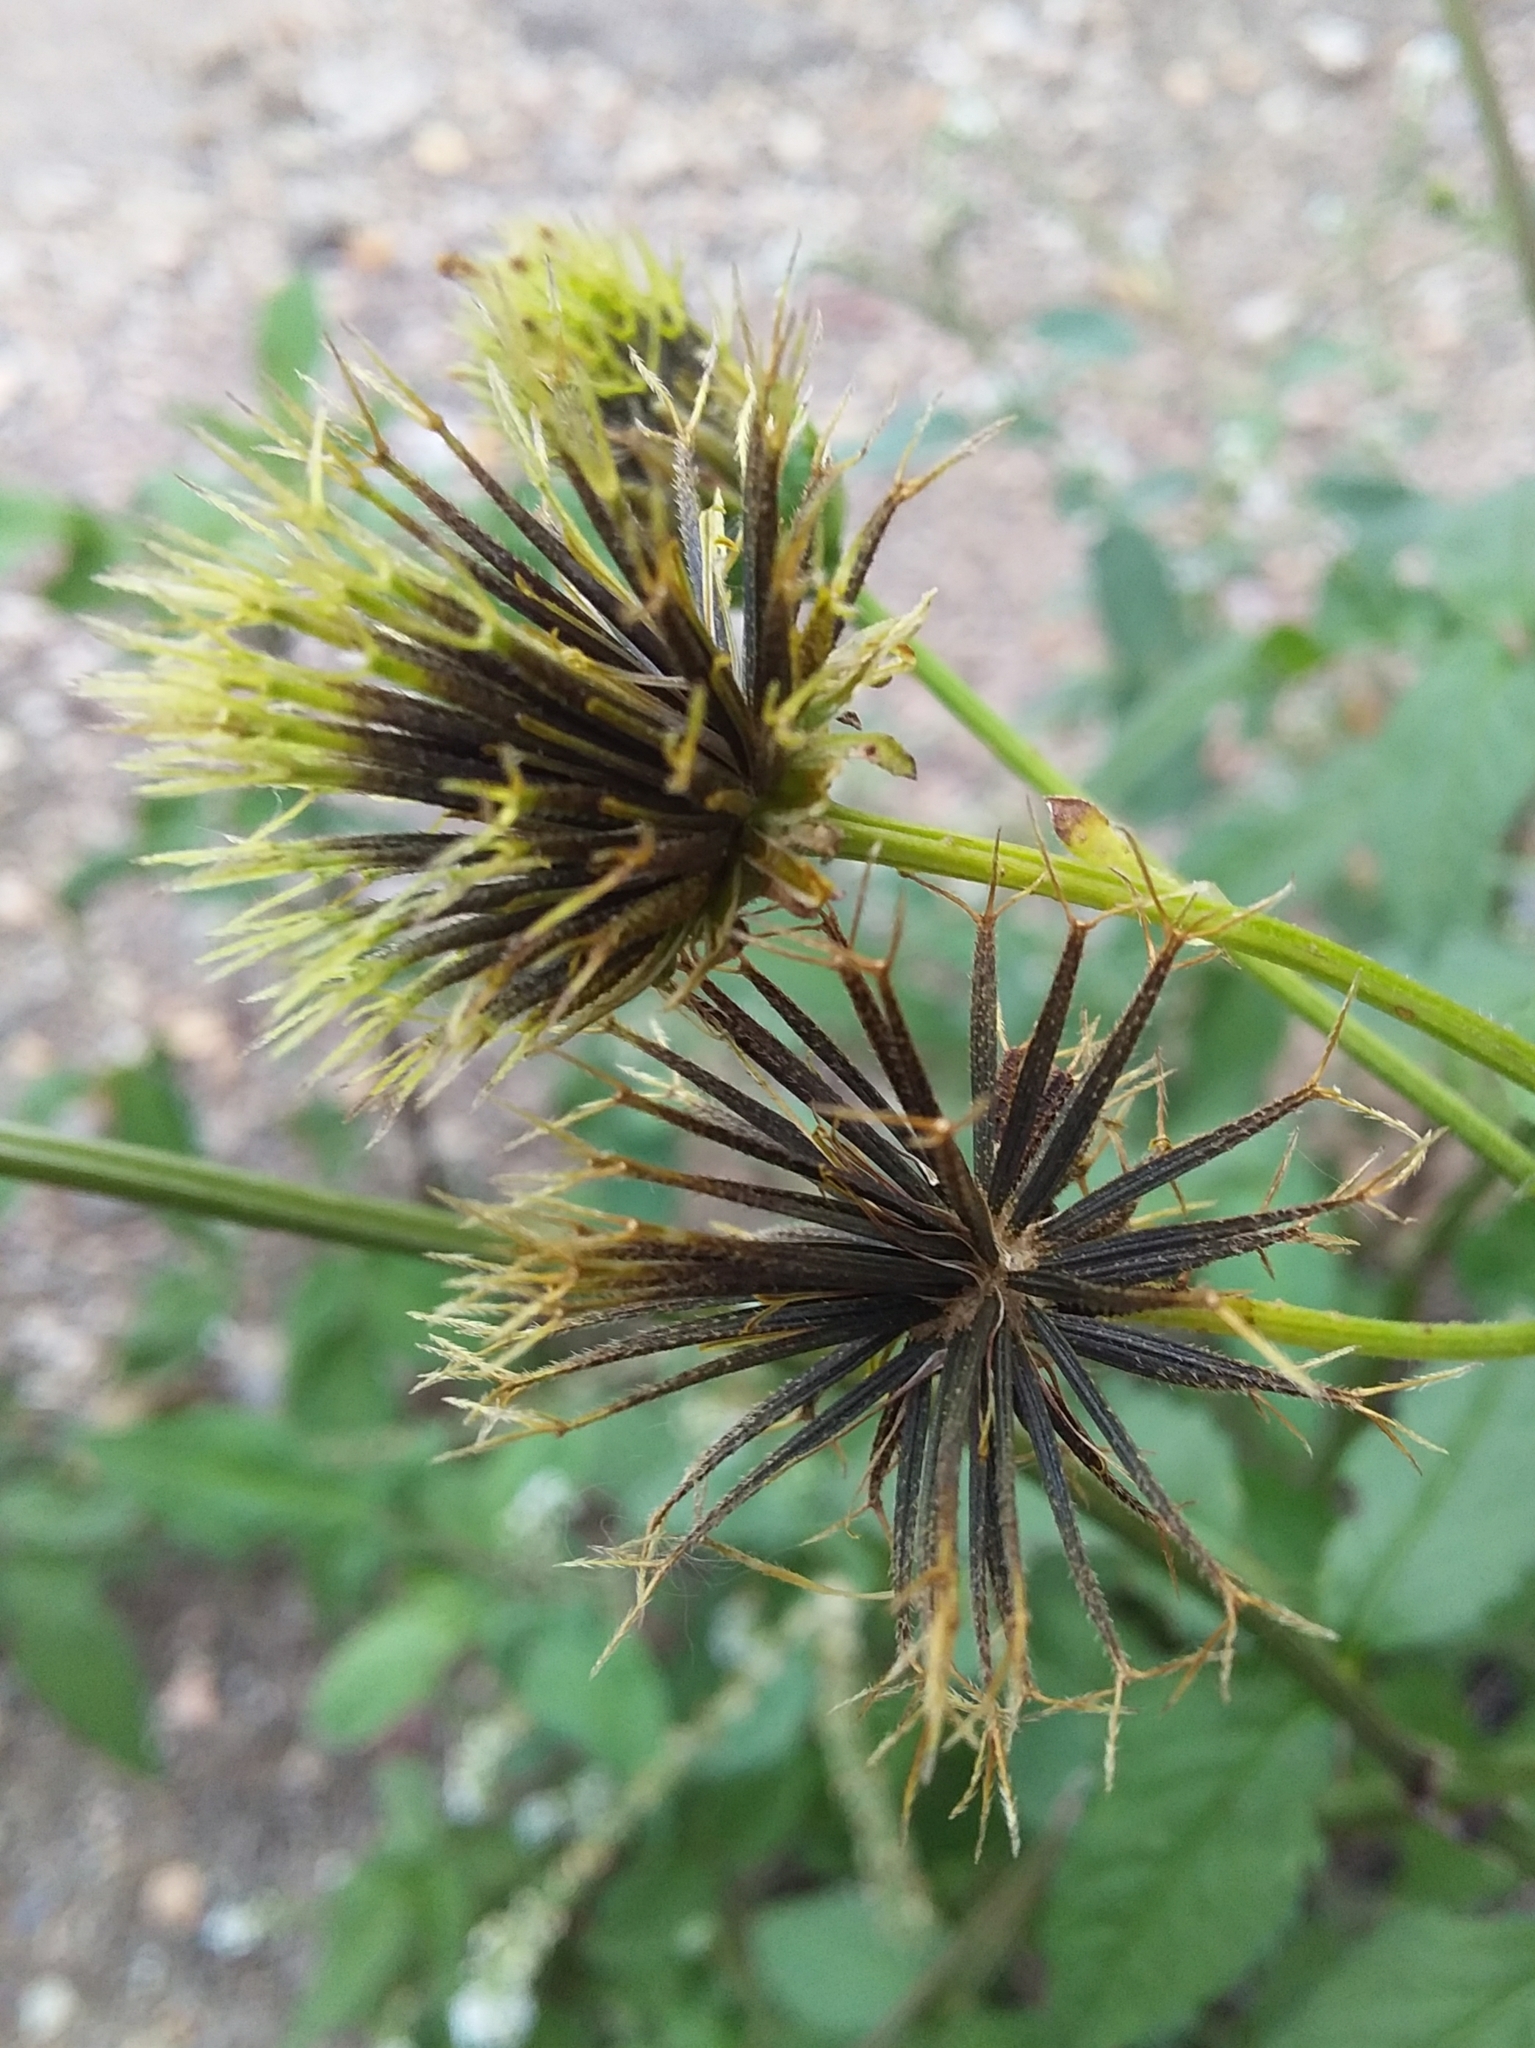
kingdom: Plantae
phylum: Tracheophyta
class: Magnoliopsida
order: Asterales
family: Asteraceae
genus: Bidens
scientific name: Bidens pilosa
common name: Black-jack
